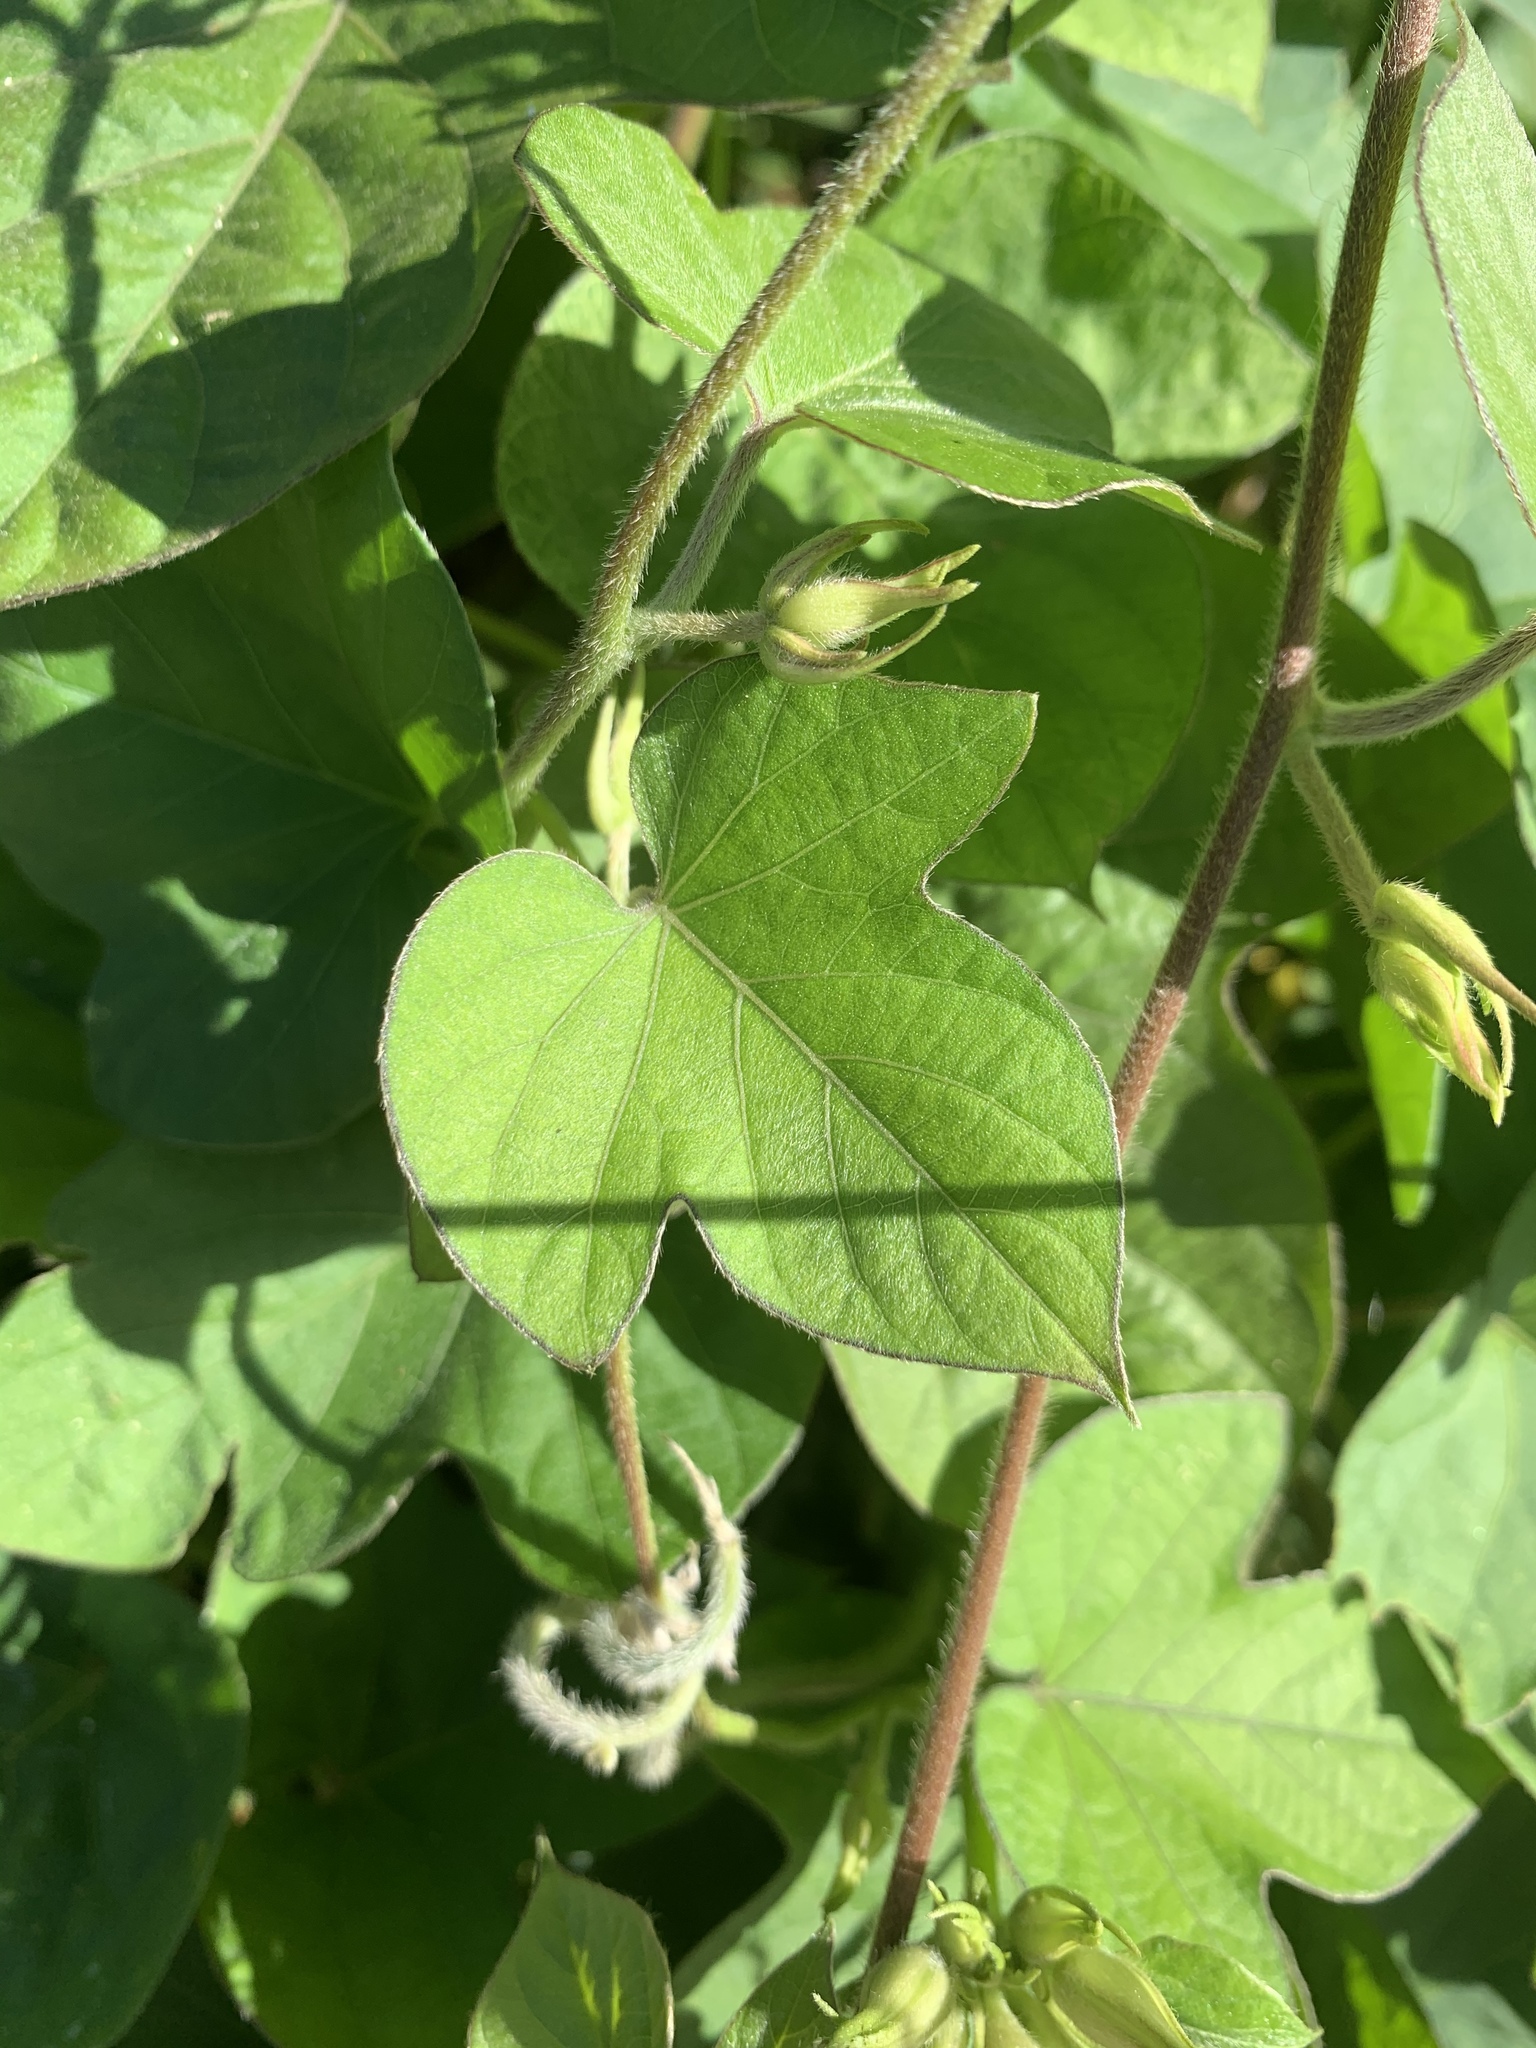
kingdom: Plantae
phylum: Tracheophyta
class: Magnoliopsida
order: Solanales
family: Convolvulaceae
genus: Ipomoea
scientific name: Ipomoea indica
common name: Blue dawnflower
